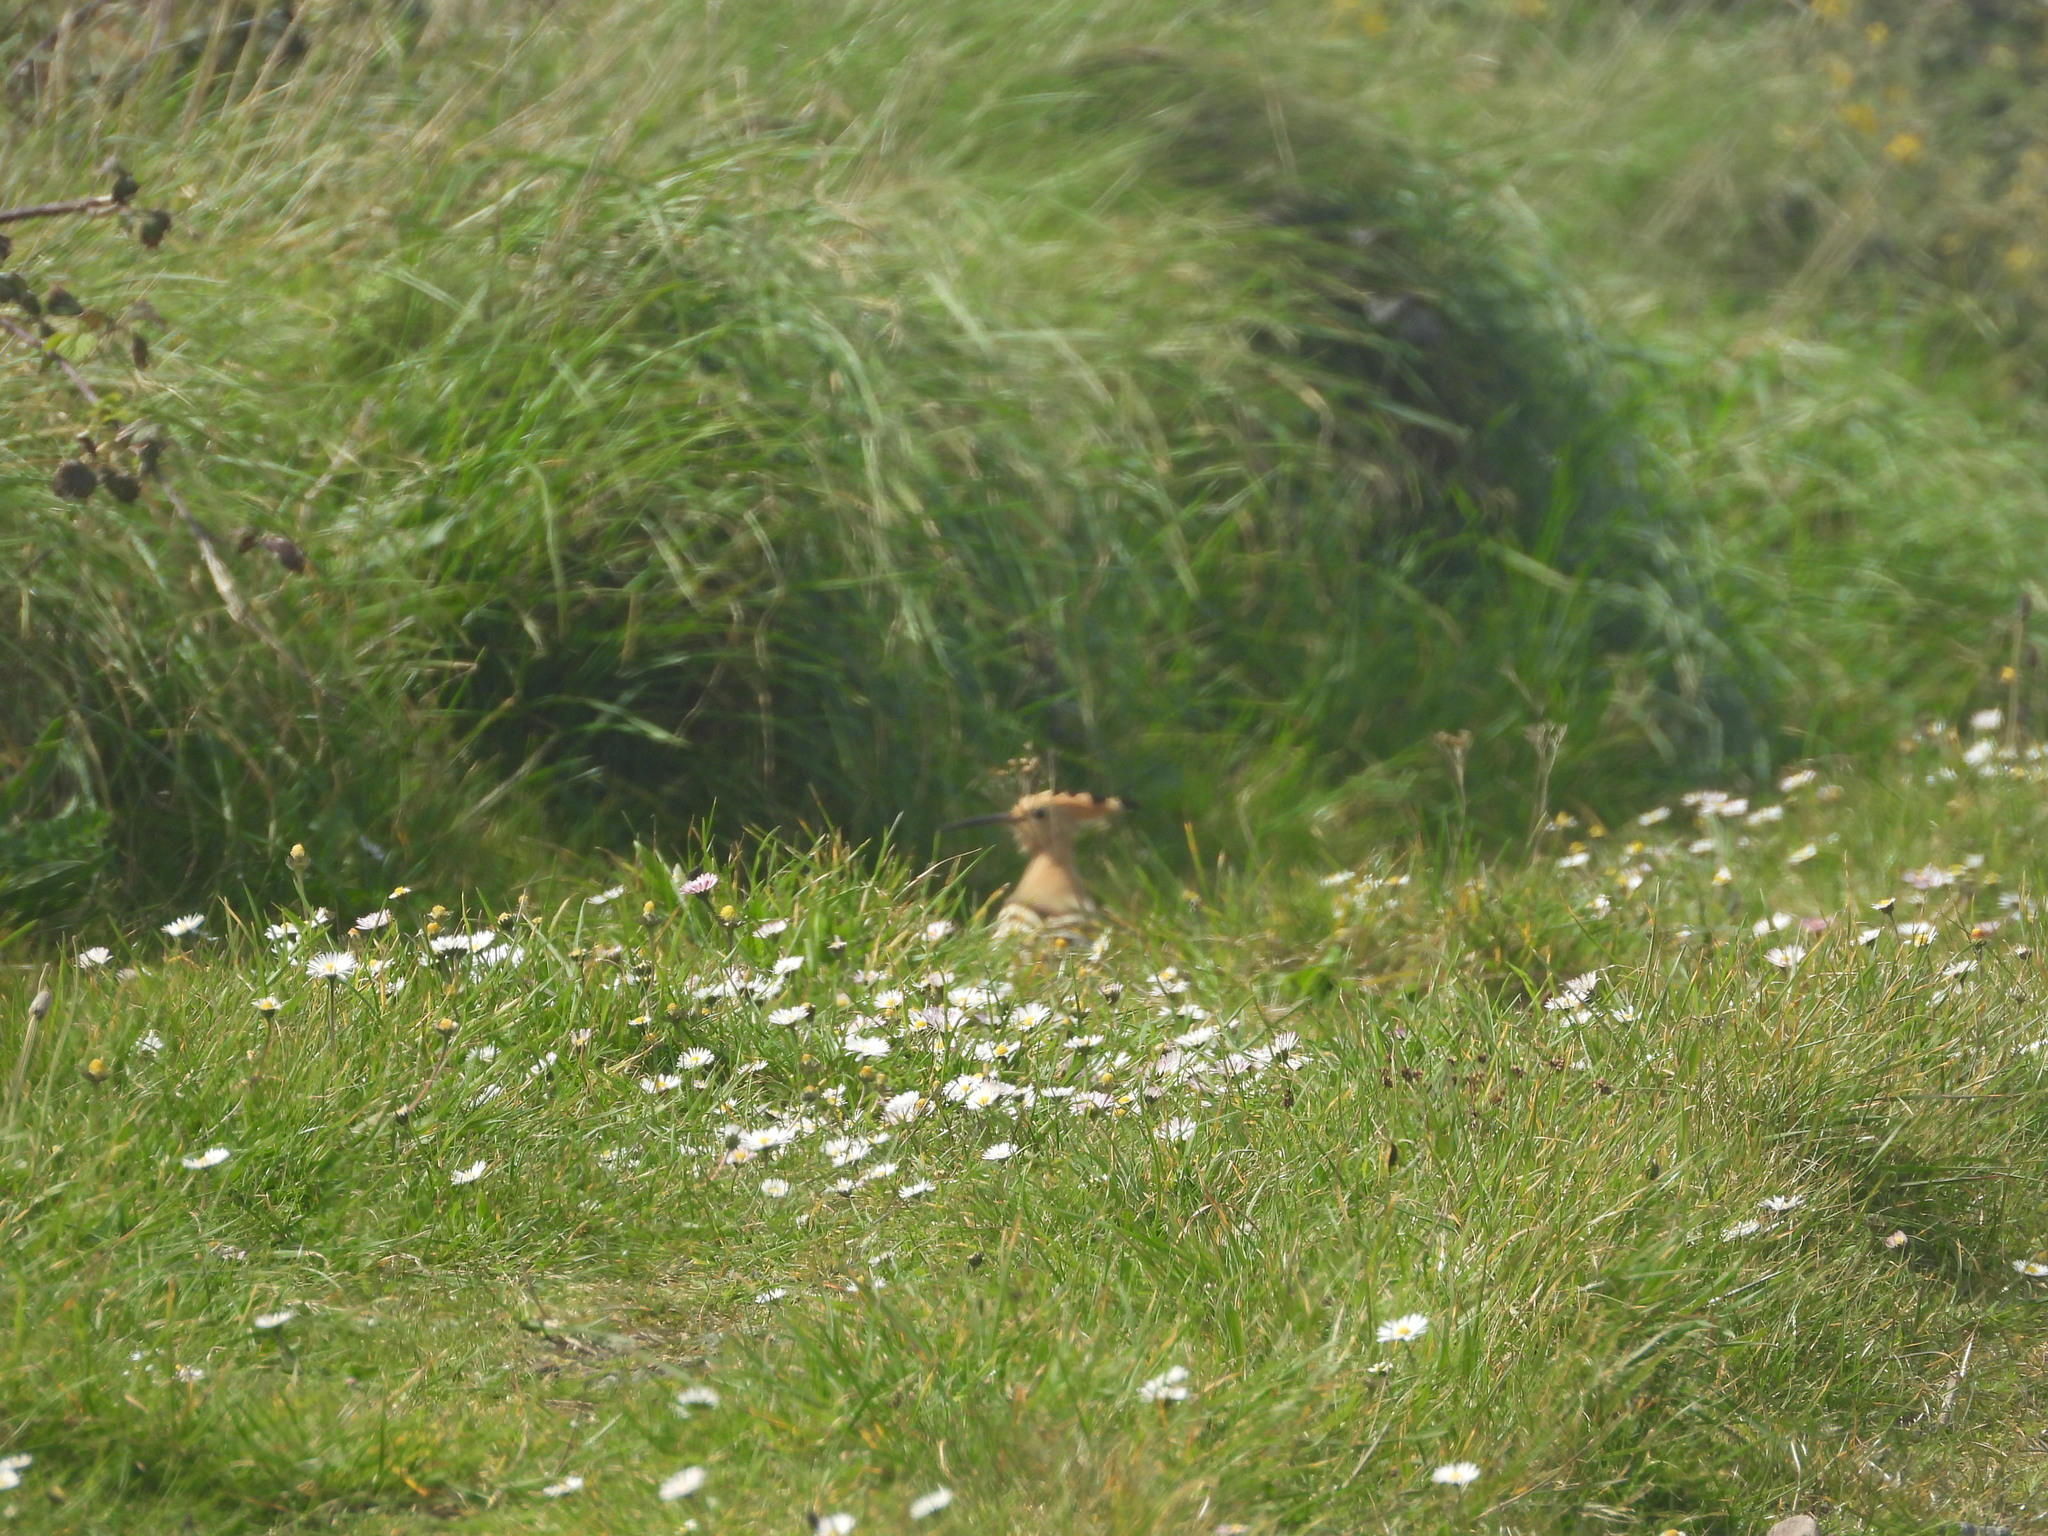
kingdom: Animalia
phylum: Chordata
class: Aves
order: Bucerotiformes
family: Upupidae
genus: Upupa
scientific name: Upupa epops
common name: Eurasian hoopoe
